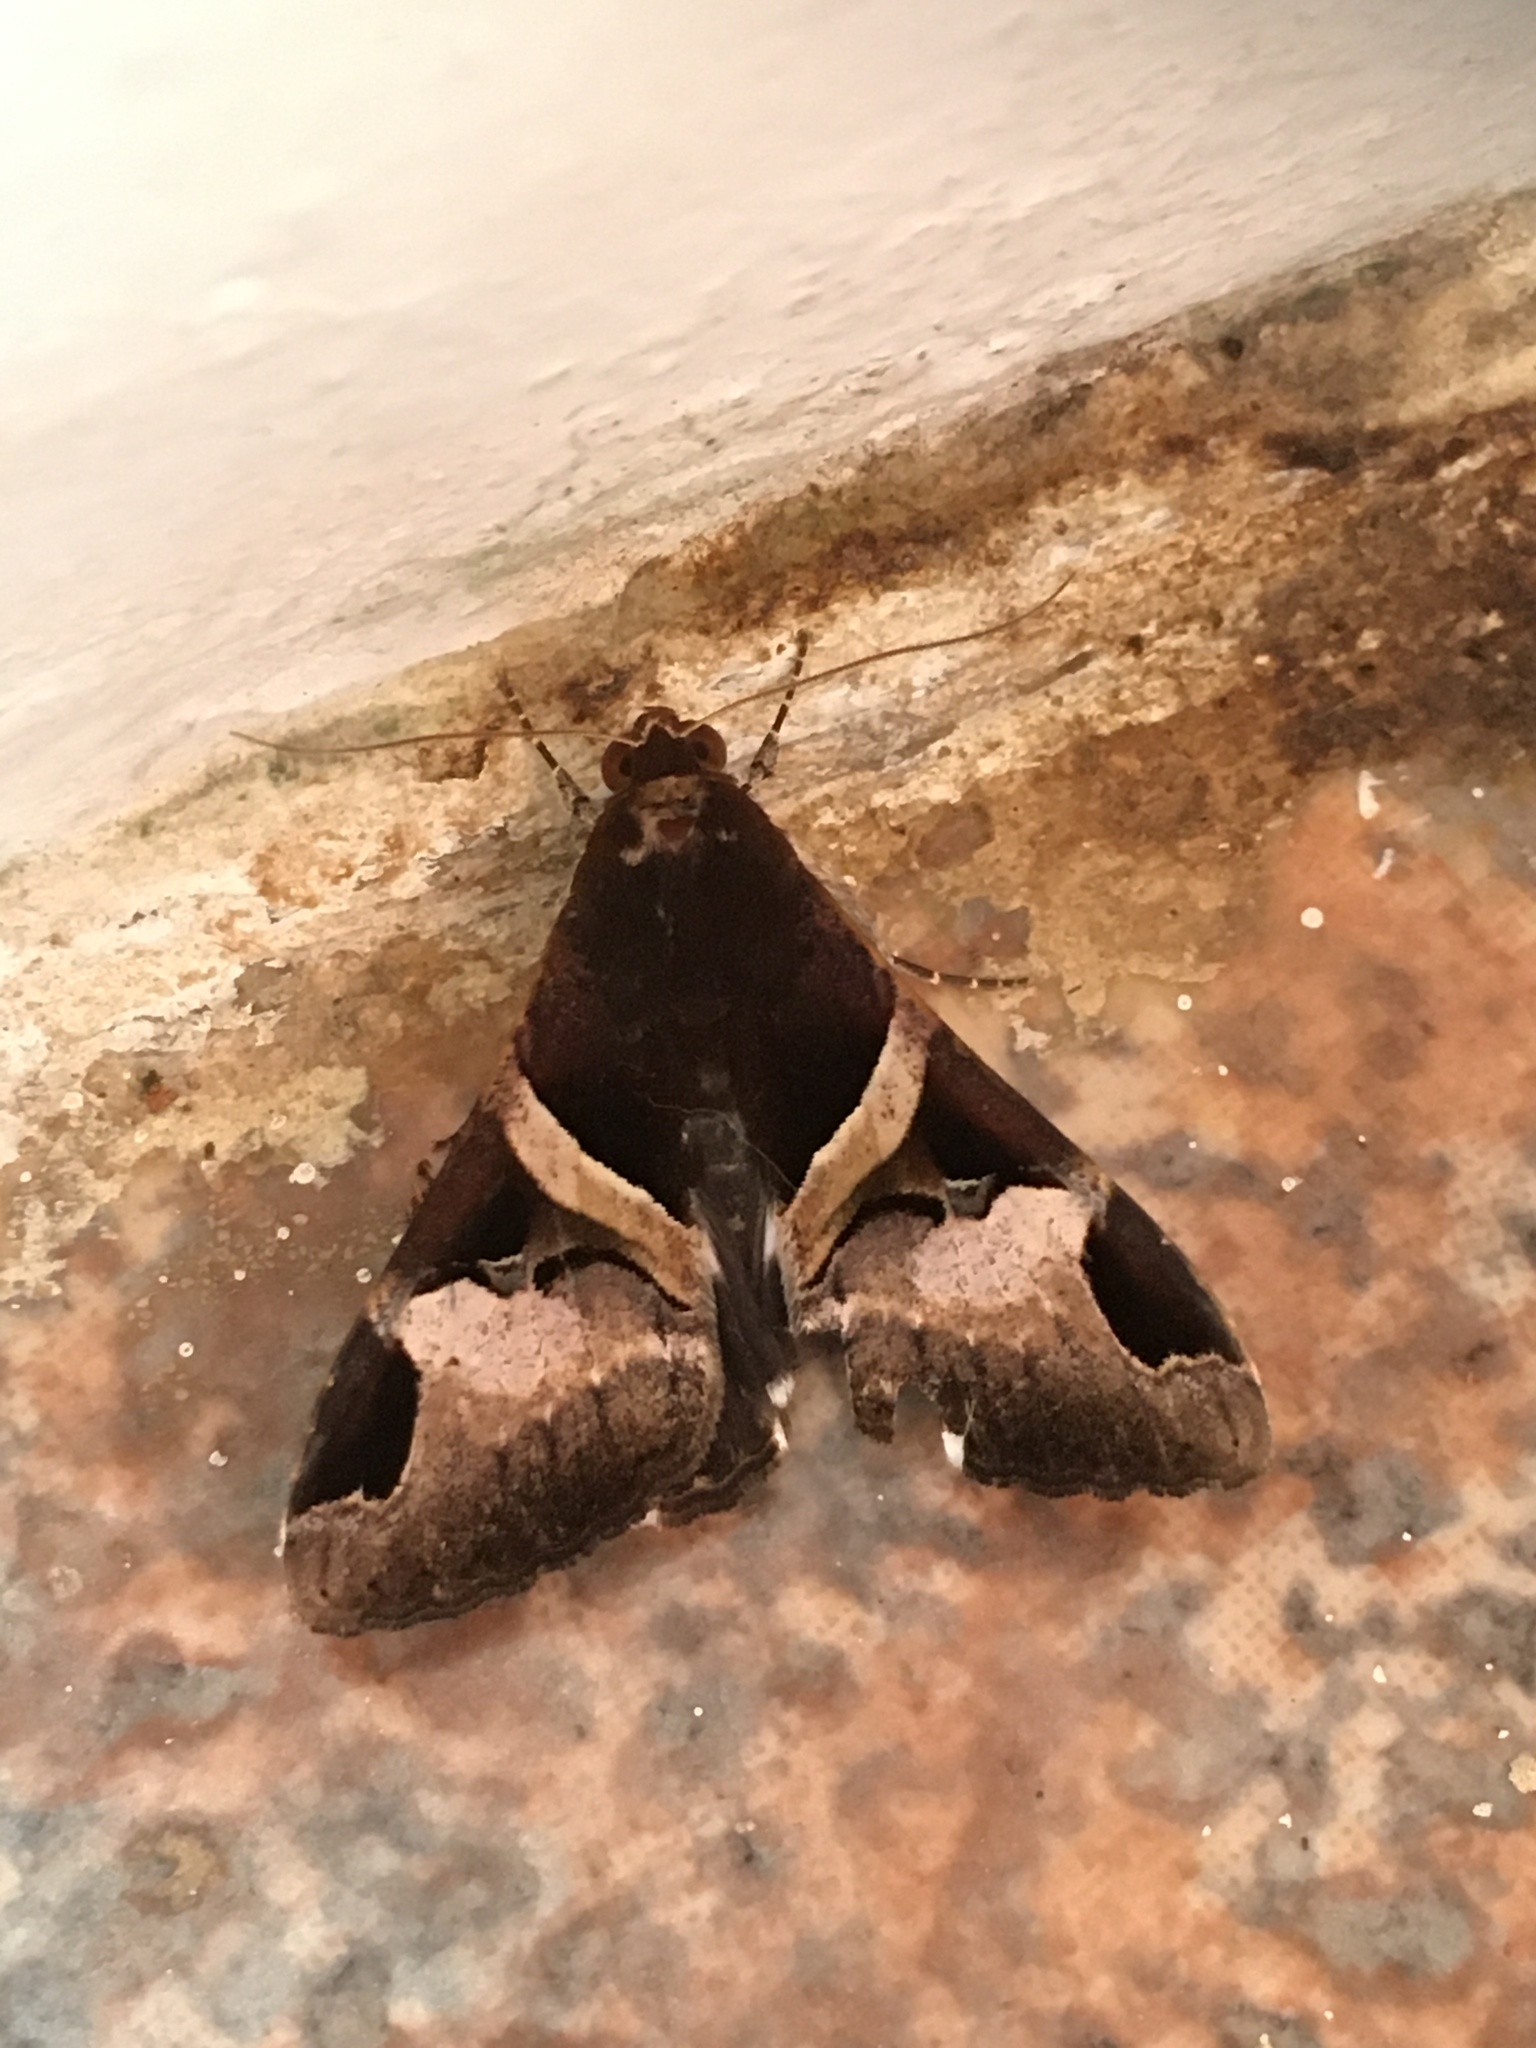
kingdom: Animalia
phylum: Arthropoda
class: Insecta
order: Lepidoptera
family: Erebidae
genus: Melipotis
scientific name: Melipotis fasciolaris
